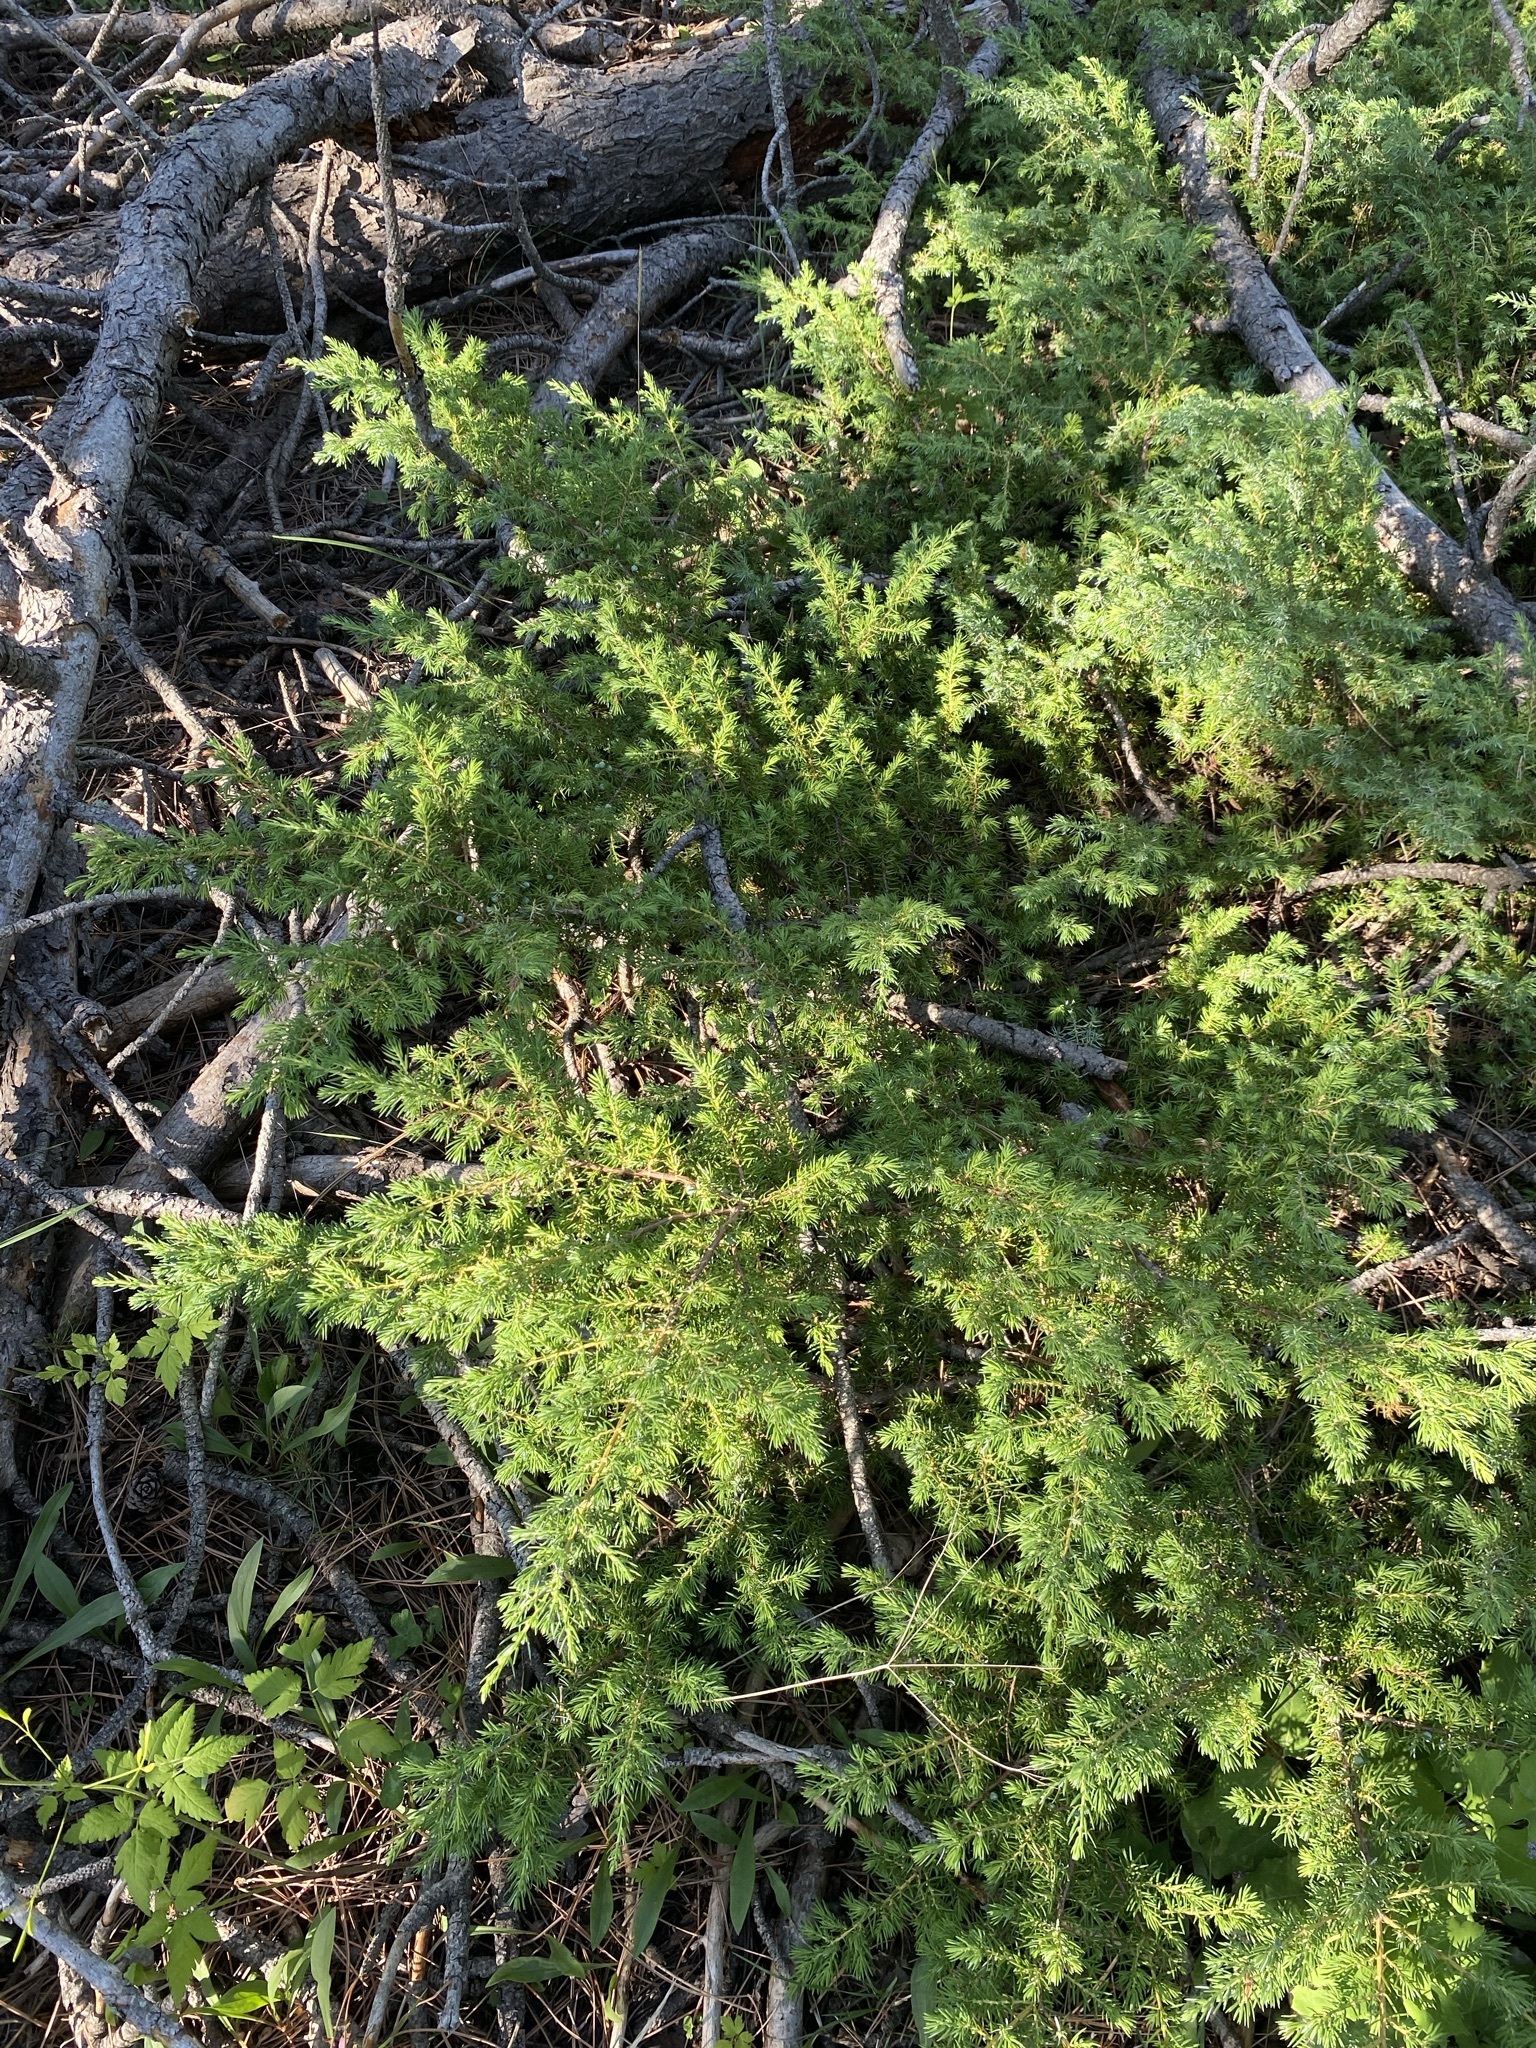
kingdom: Plantae
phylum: Tracheophyta
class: Pinopsida
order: Pinales
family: Cupressaceae
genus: Juniperus
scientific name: Juniperus communis
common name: Common juniper
